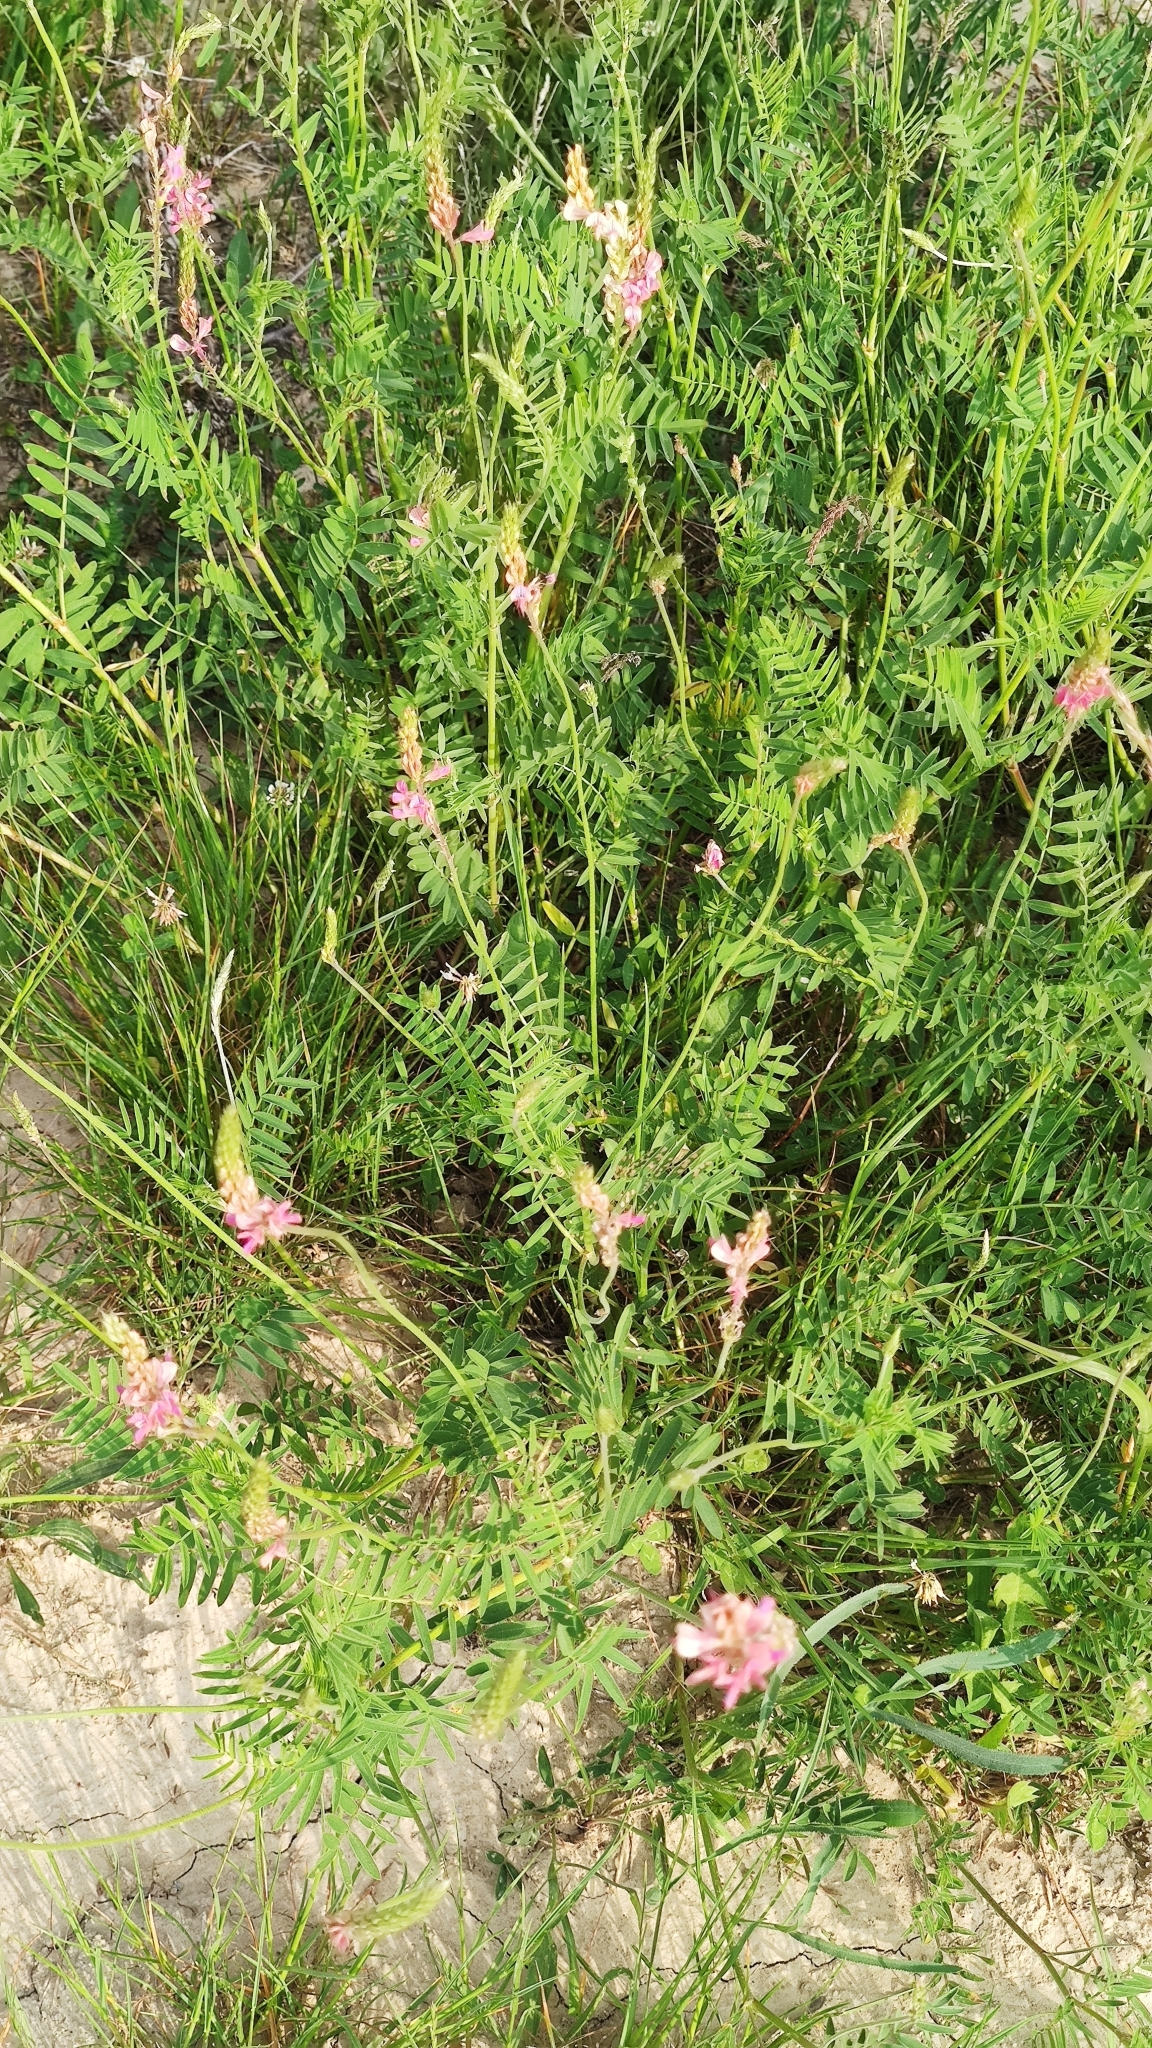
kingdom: Plantae
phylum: Tracheophyta
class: Magnoliopsida
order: Fabales
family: Fabaceae
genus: Onobrychis
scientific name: Onobrychis viciifolia
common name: Sainfoin
